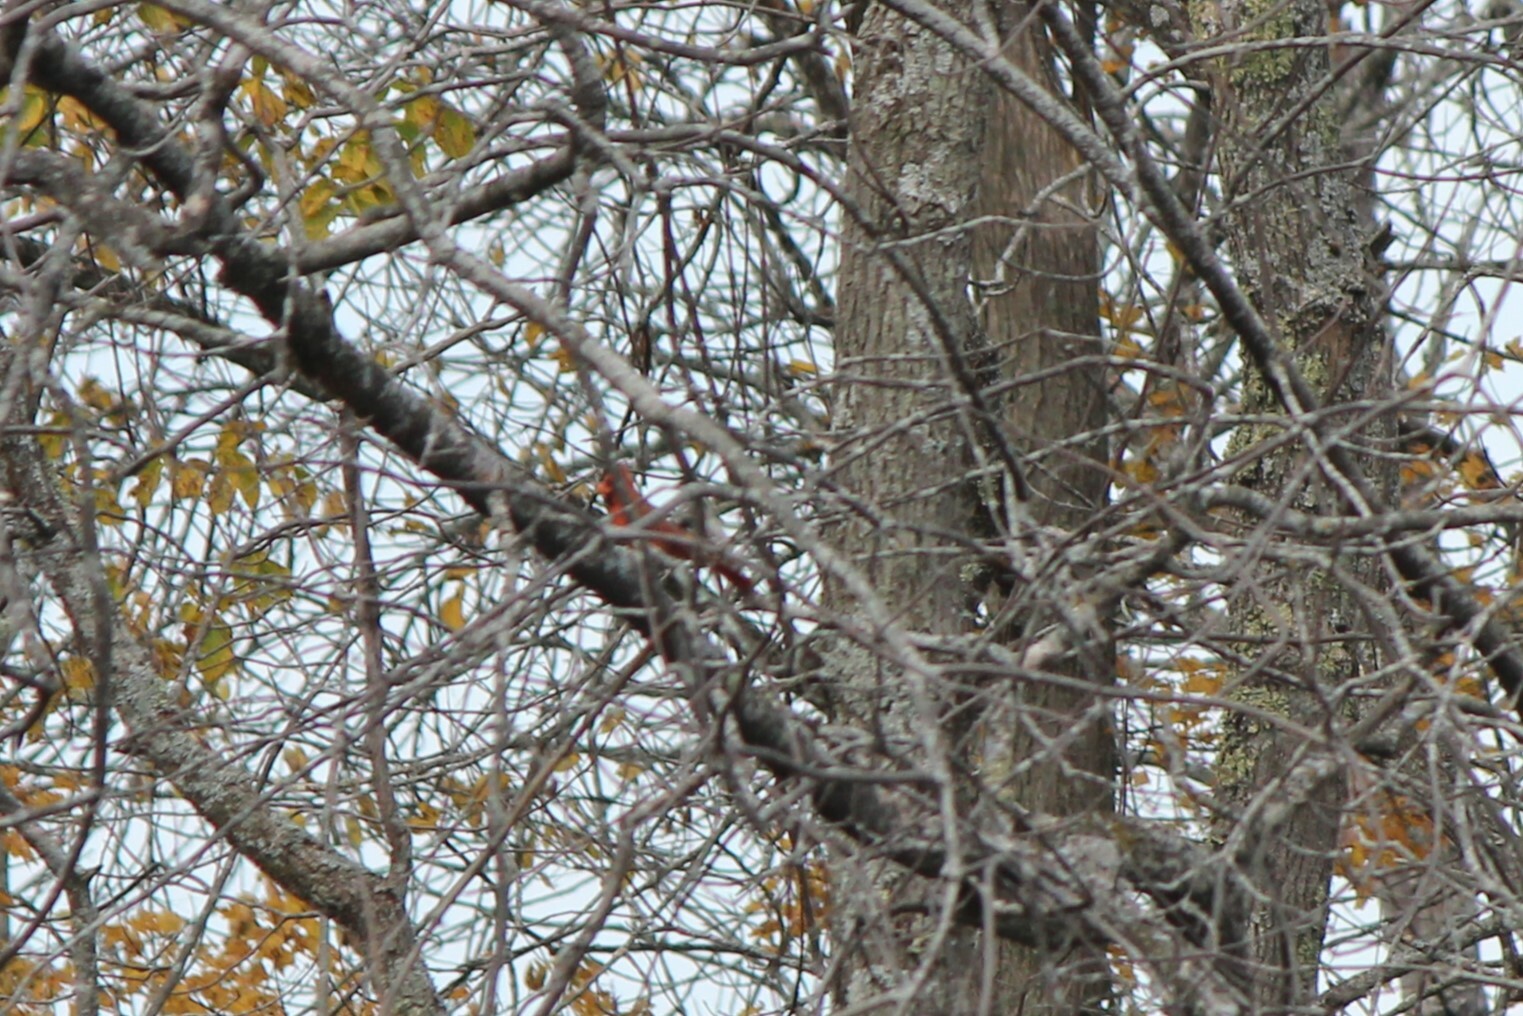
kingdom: Animalia
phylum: Chordata
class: Aves
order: Passeriformes
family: Cardinalidae
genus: Cardinalis
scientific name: Cardinalis cardinalis
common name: Northern cardinal
